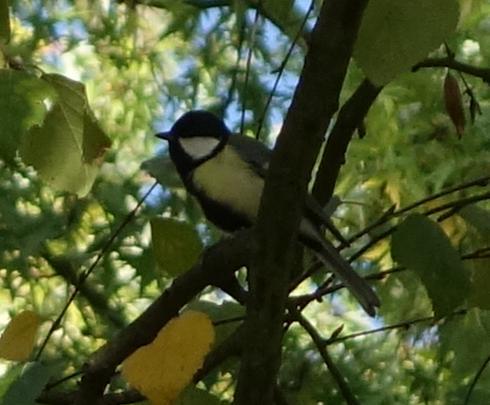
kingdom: Animalia
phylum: Chordata
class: Aves
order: Passeriformes
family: Paridae
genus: Parus
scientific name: Parus major
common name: Great tit
